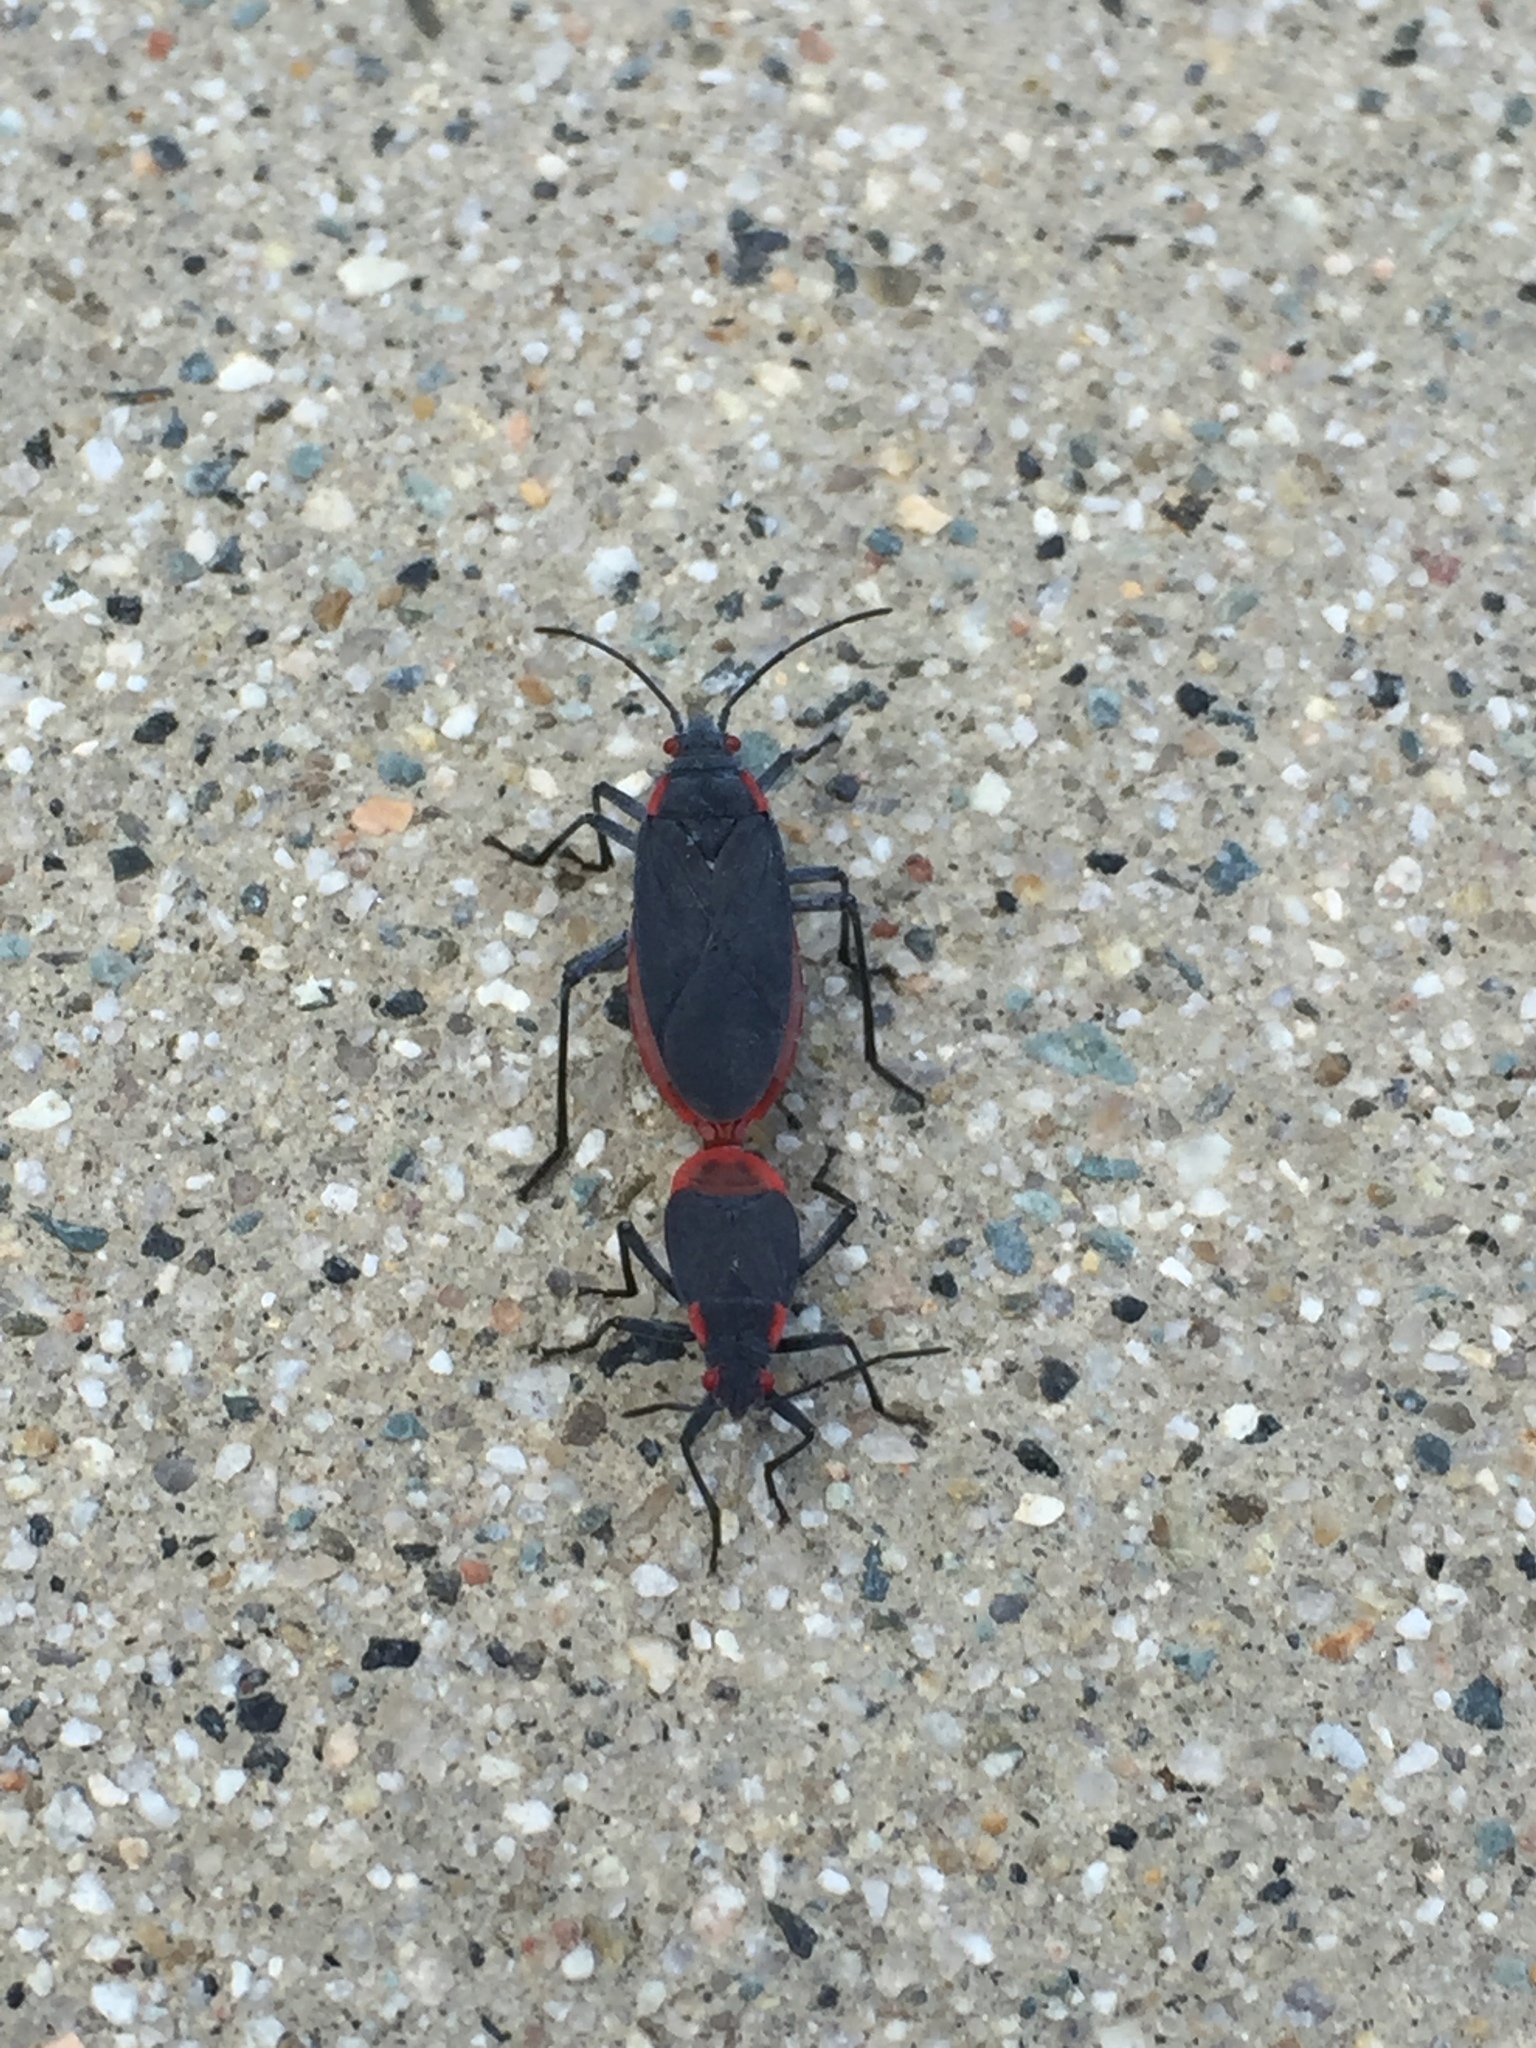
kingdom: Animalia
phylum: Arthropoda
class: Insecta
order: Hemiptera
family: Rhopalidae
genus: Jadera
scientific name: Jadera haematoloma
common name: Red-shouldered bug
